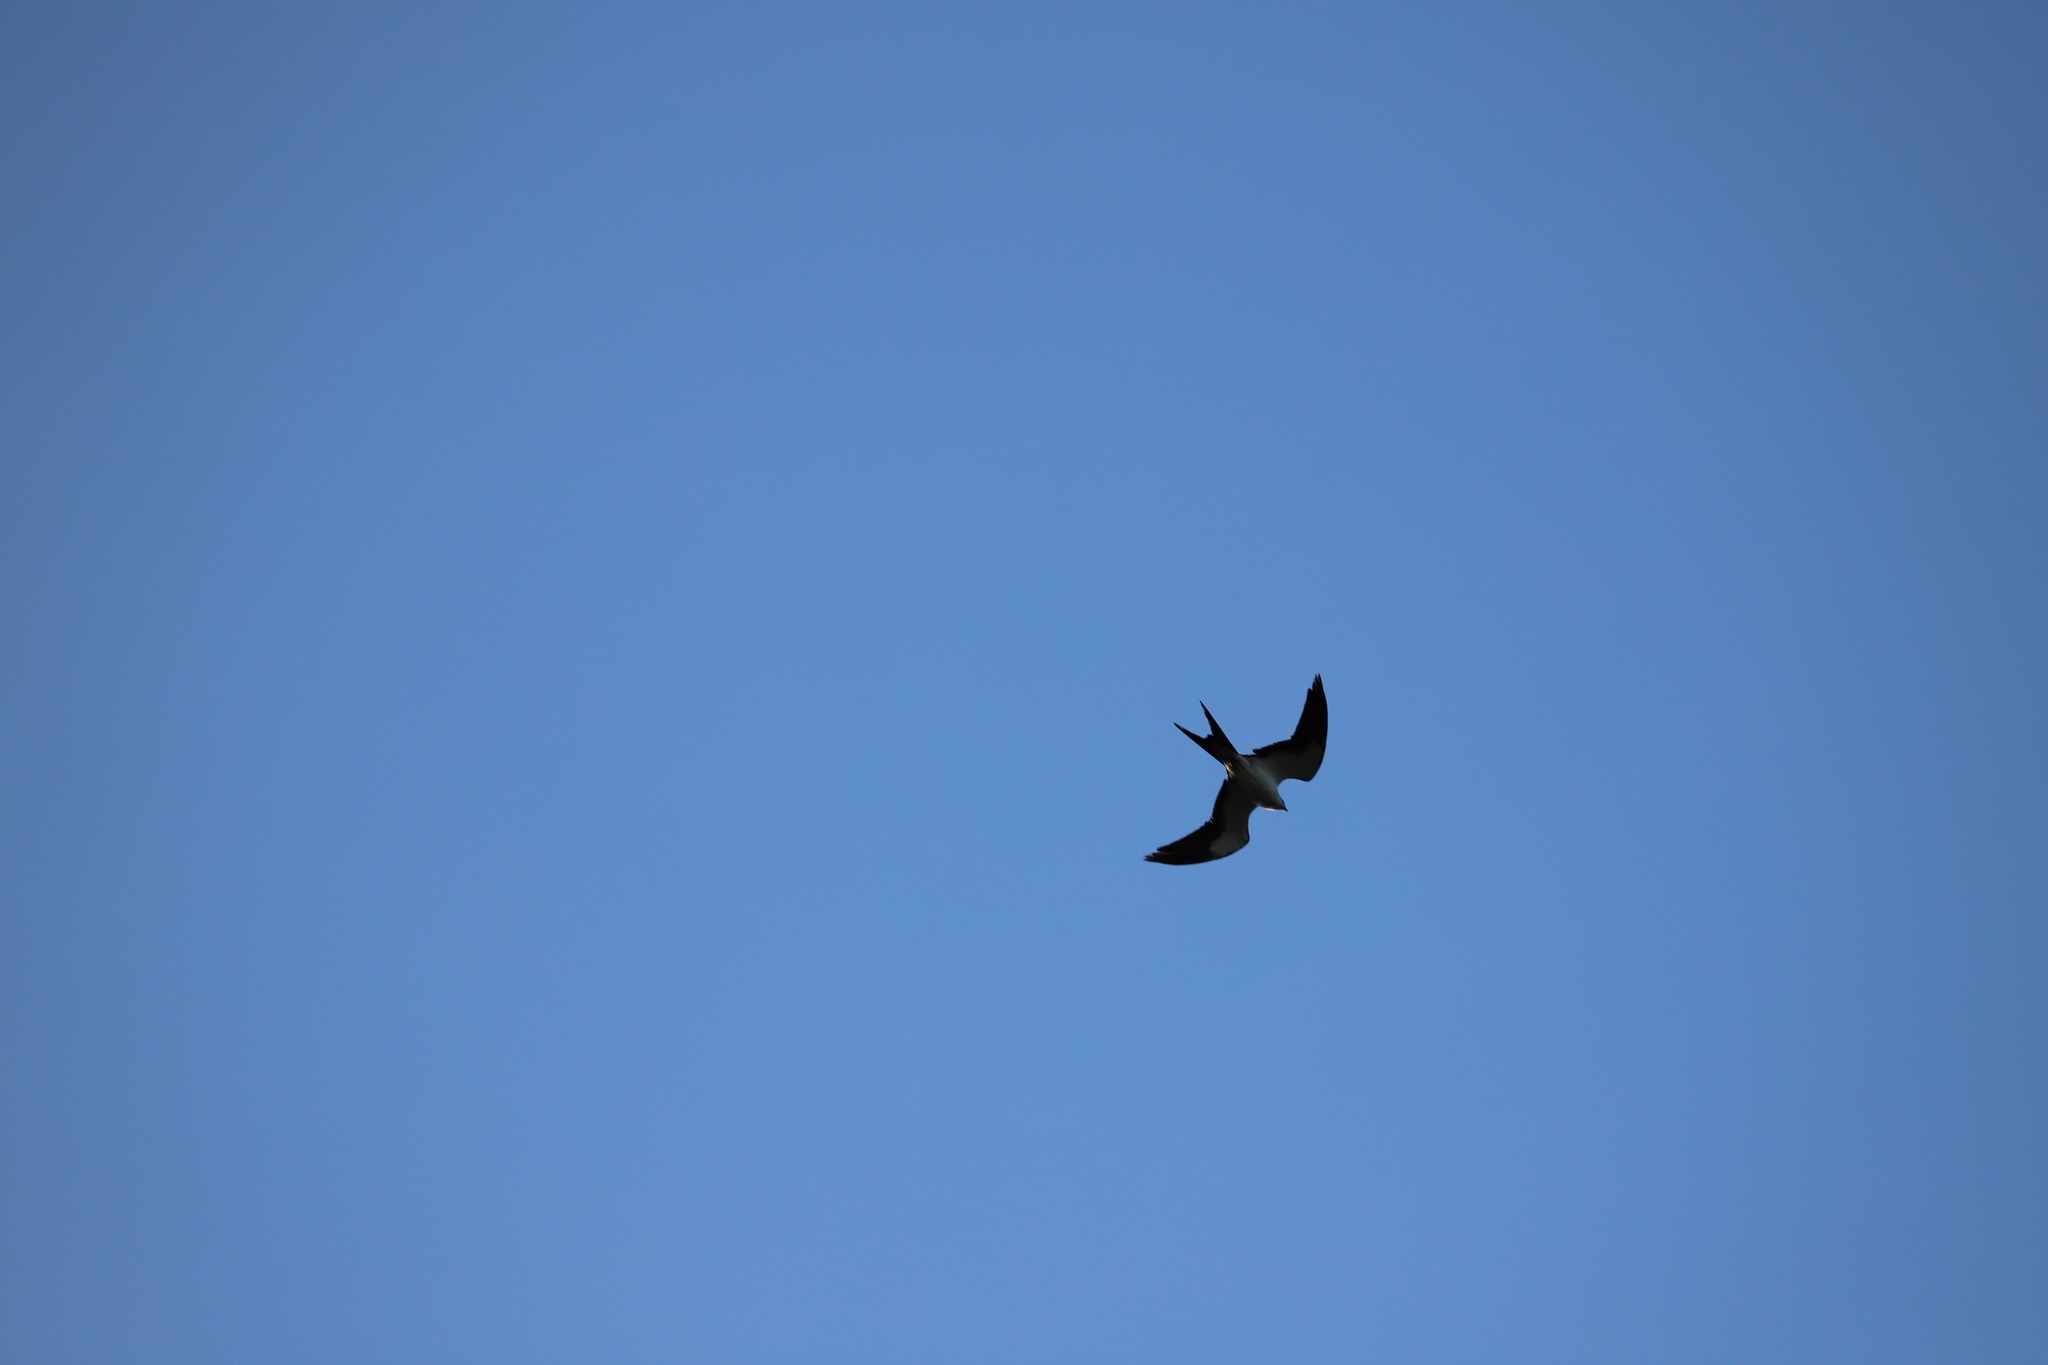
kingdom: Animalia
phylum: Chordata
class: Aves
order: Accipitriformes
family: Accipitridae
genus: Elanoides
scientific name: Elanoides forficatus
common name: Swallow-tailed kite
